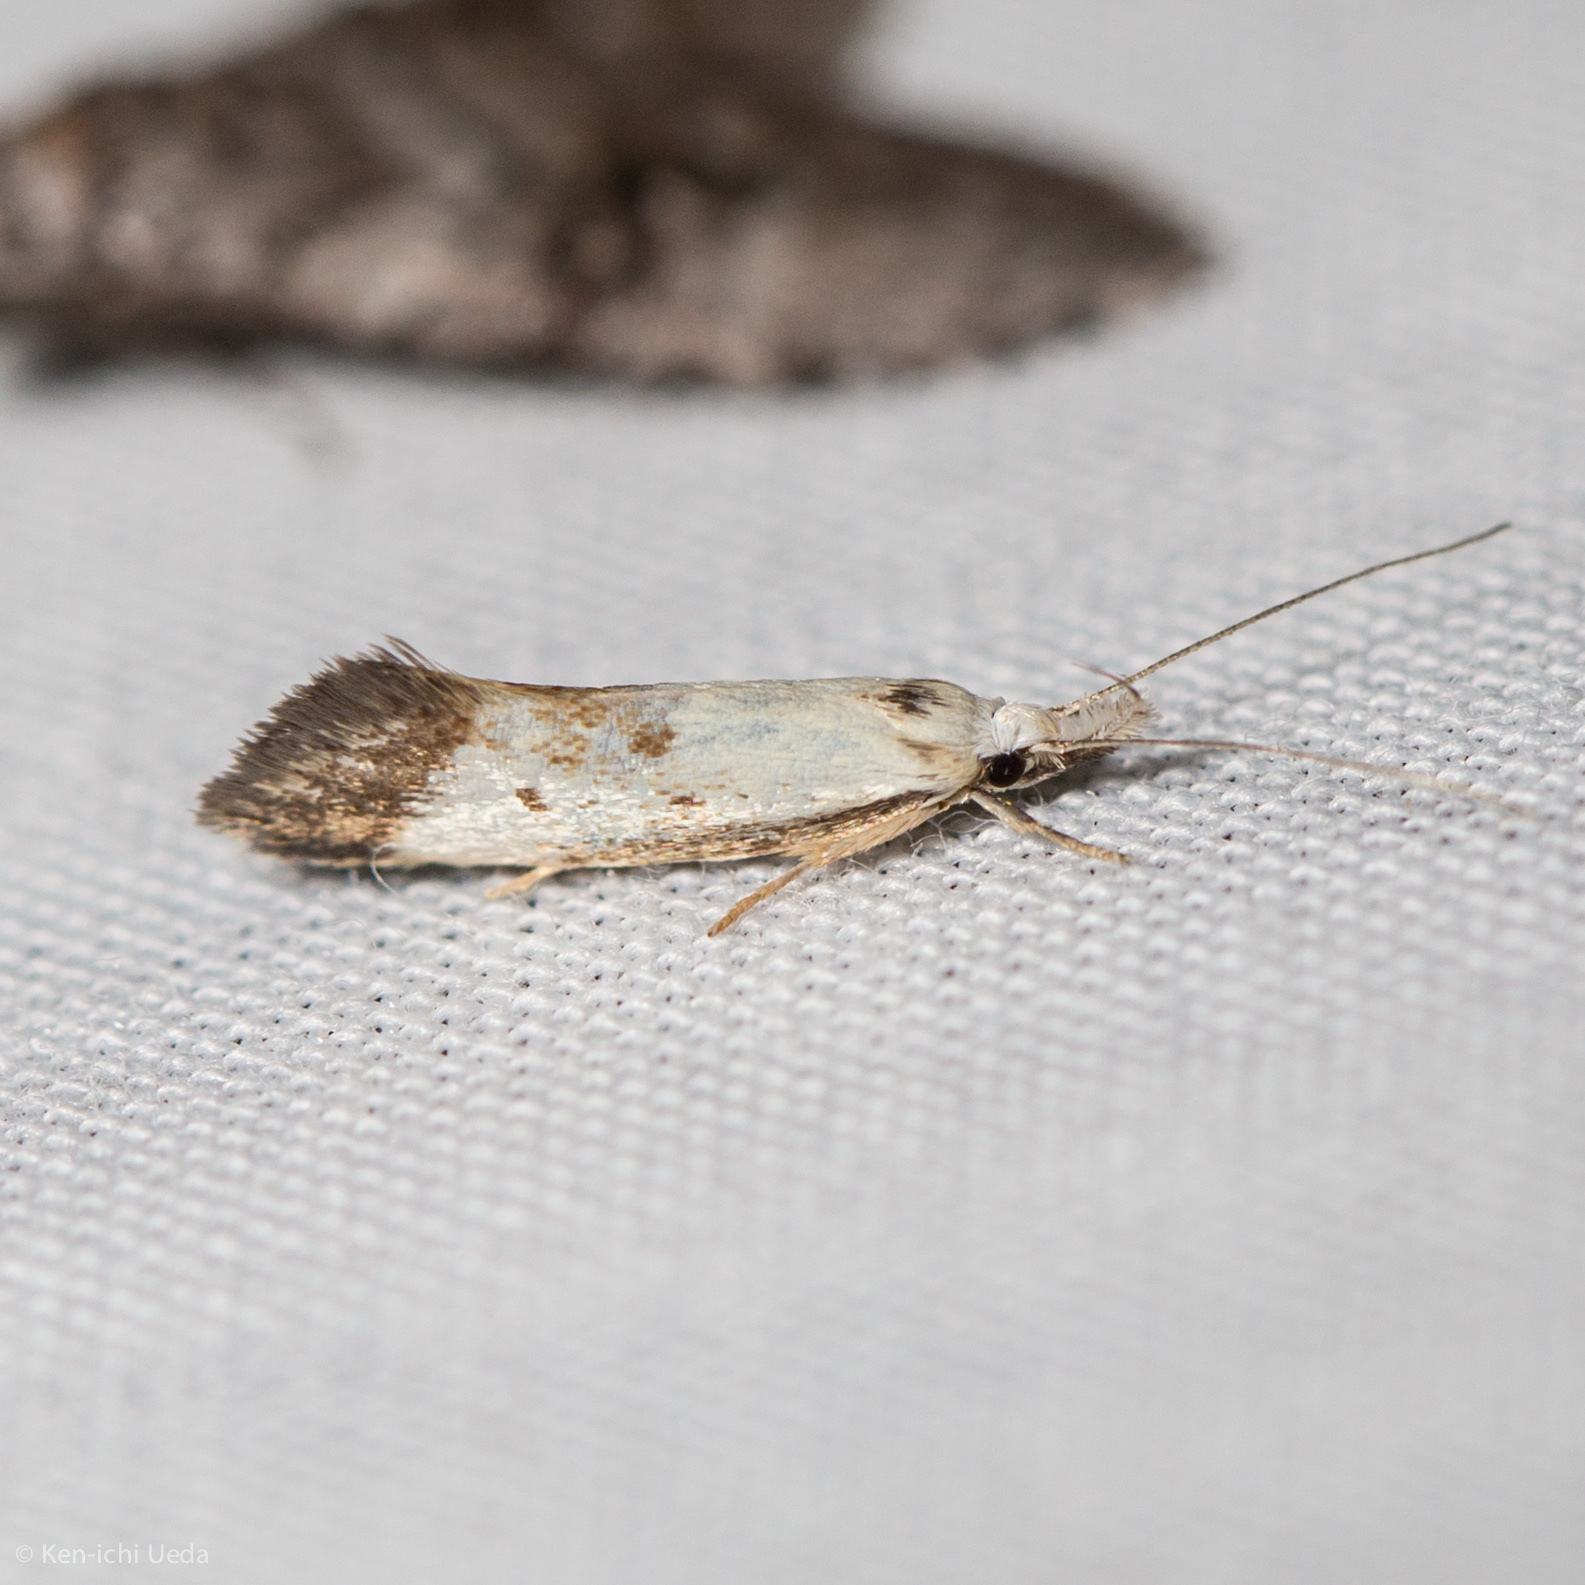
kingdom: Animalia
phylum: Arthropoda
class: Insecta
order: Lepidoptera
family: Oecophoridae
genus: Thema
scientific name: Thema leucophara
